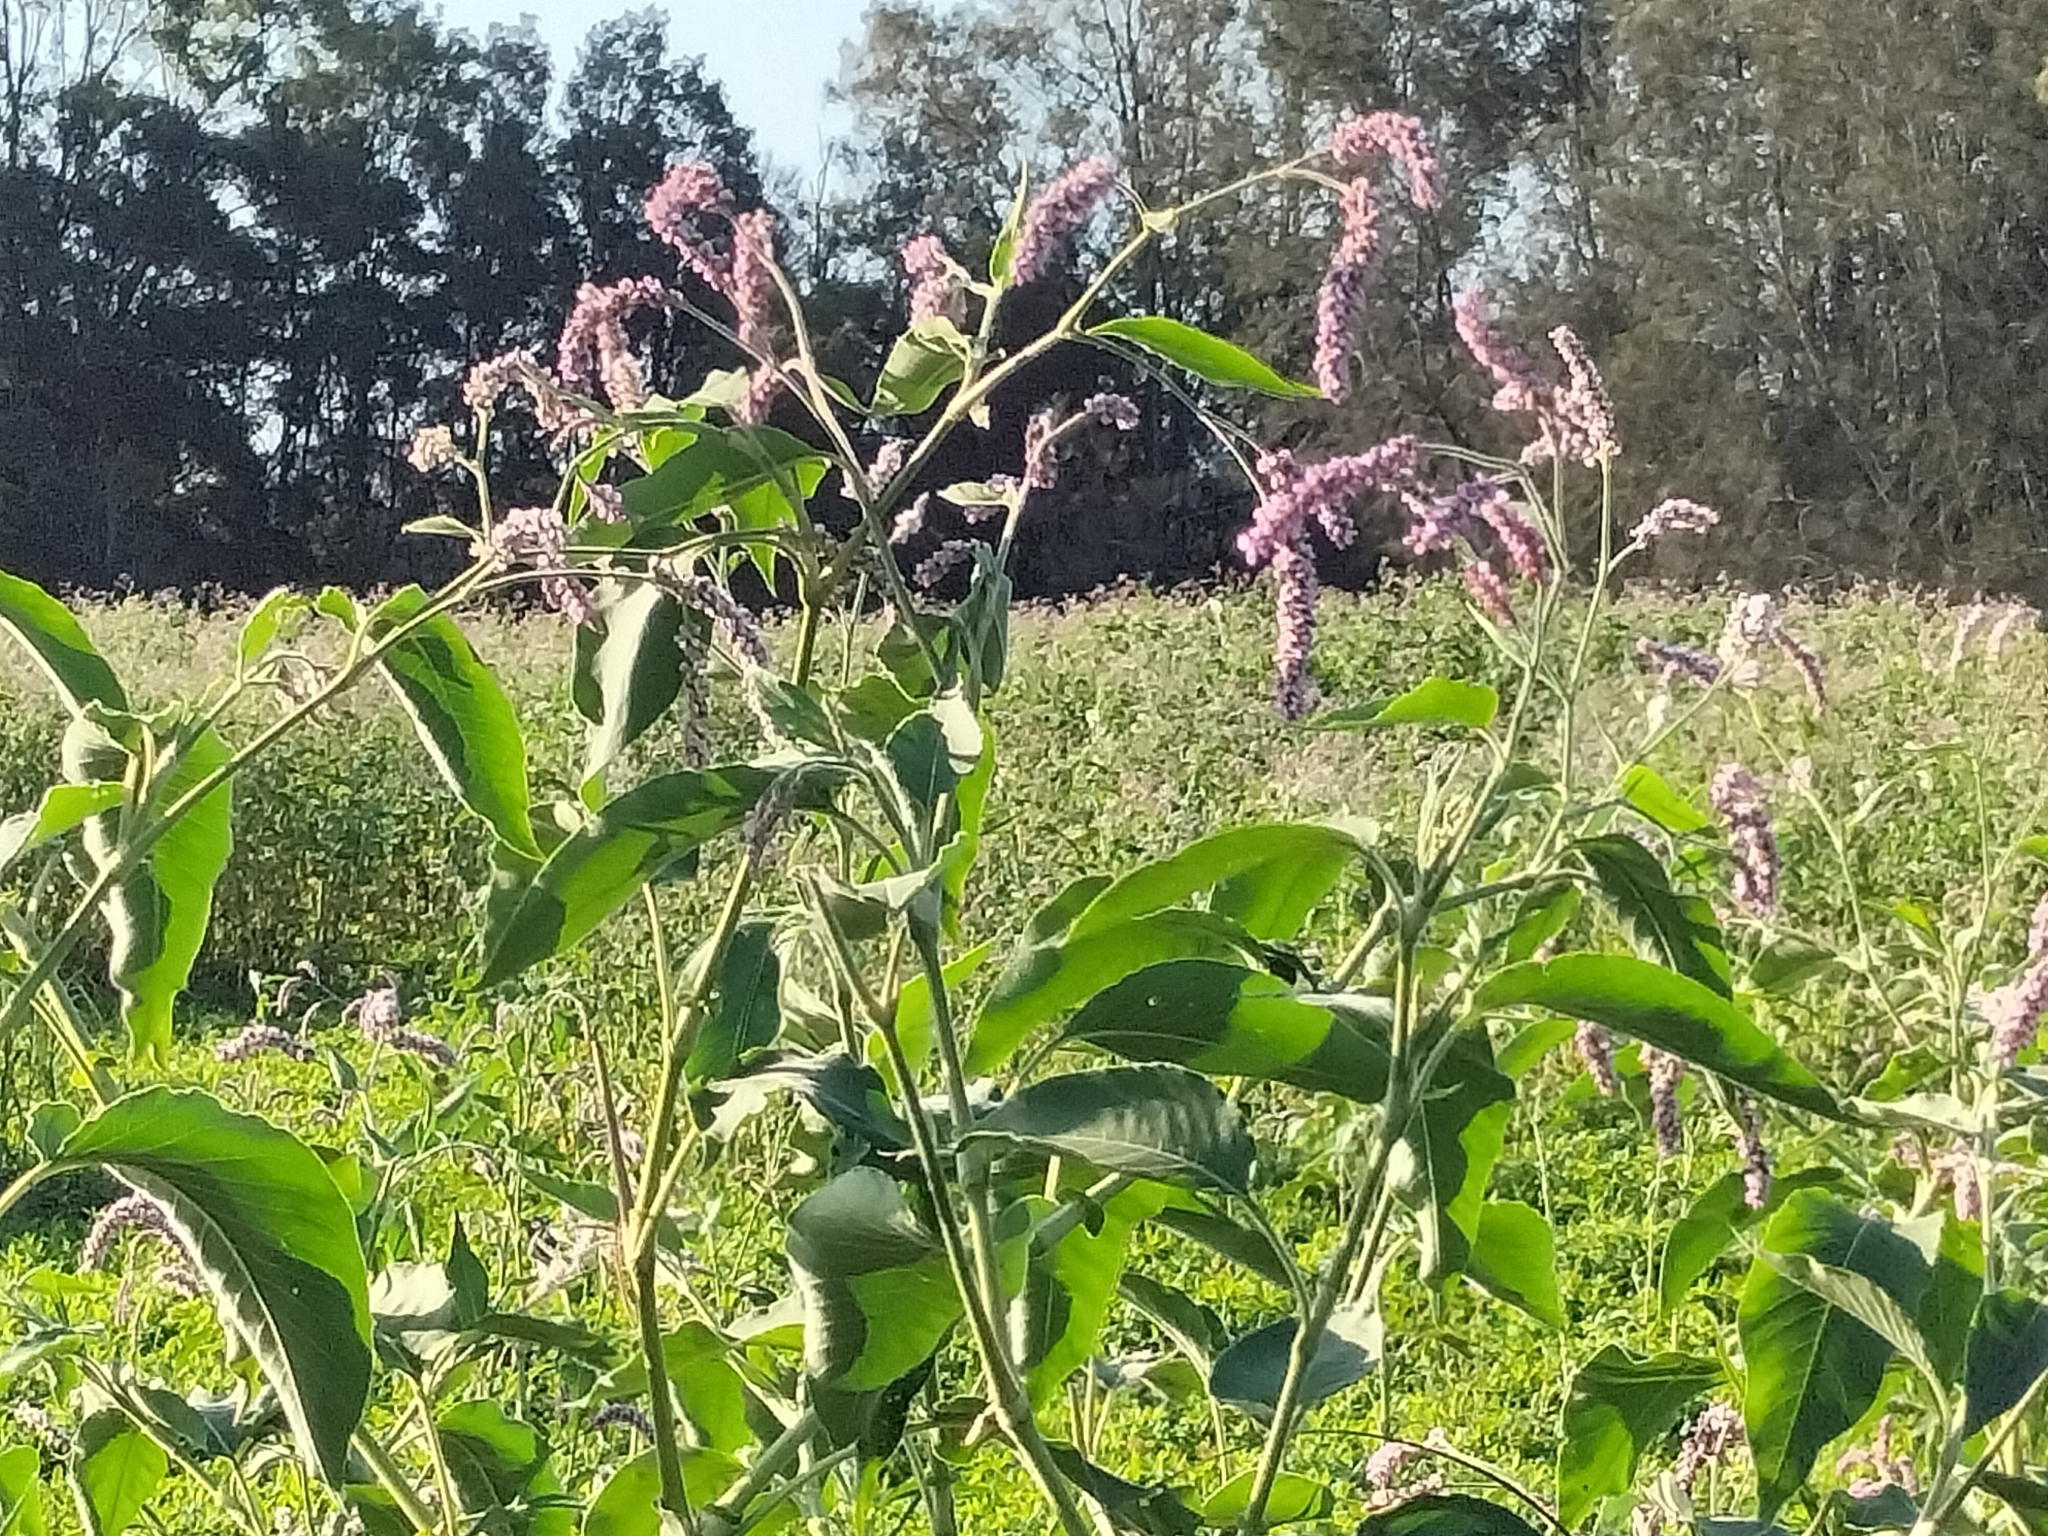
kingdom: Plantae
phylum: Tracheophyta
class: Magnoliopsida
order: Caryophyllales
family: Polygonaceae
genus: Persicaria
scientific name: Persicaria orientalis
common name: Kiss-me-over-the-garden-gate
